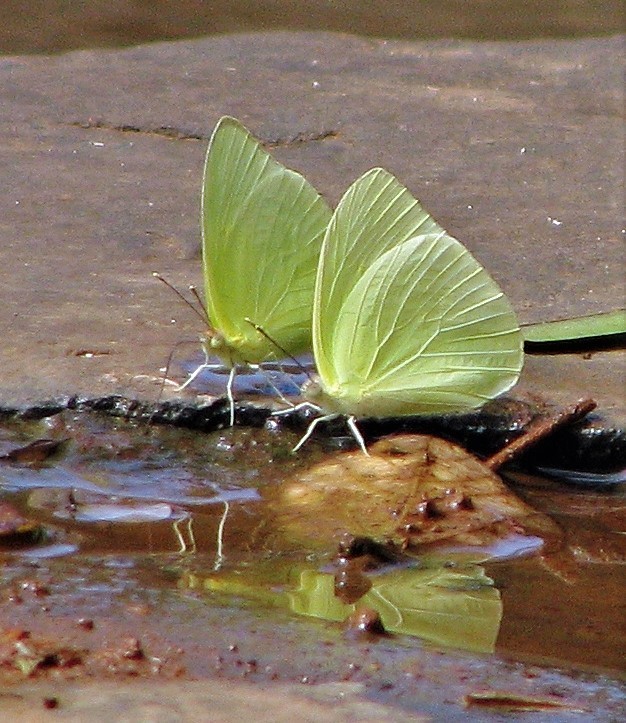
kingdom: Animalia
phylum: Arthropoda
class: Insecta
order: Lepidoptera
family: Pieridae
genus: Aphrissa
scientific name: Aphrissa statira
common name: Statira sulphur
